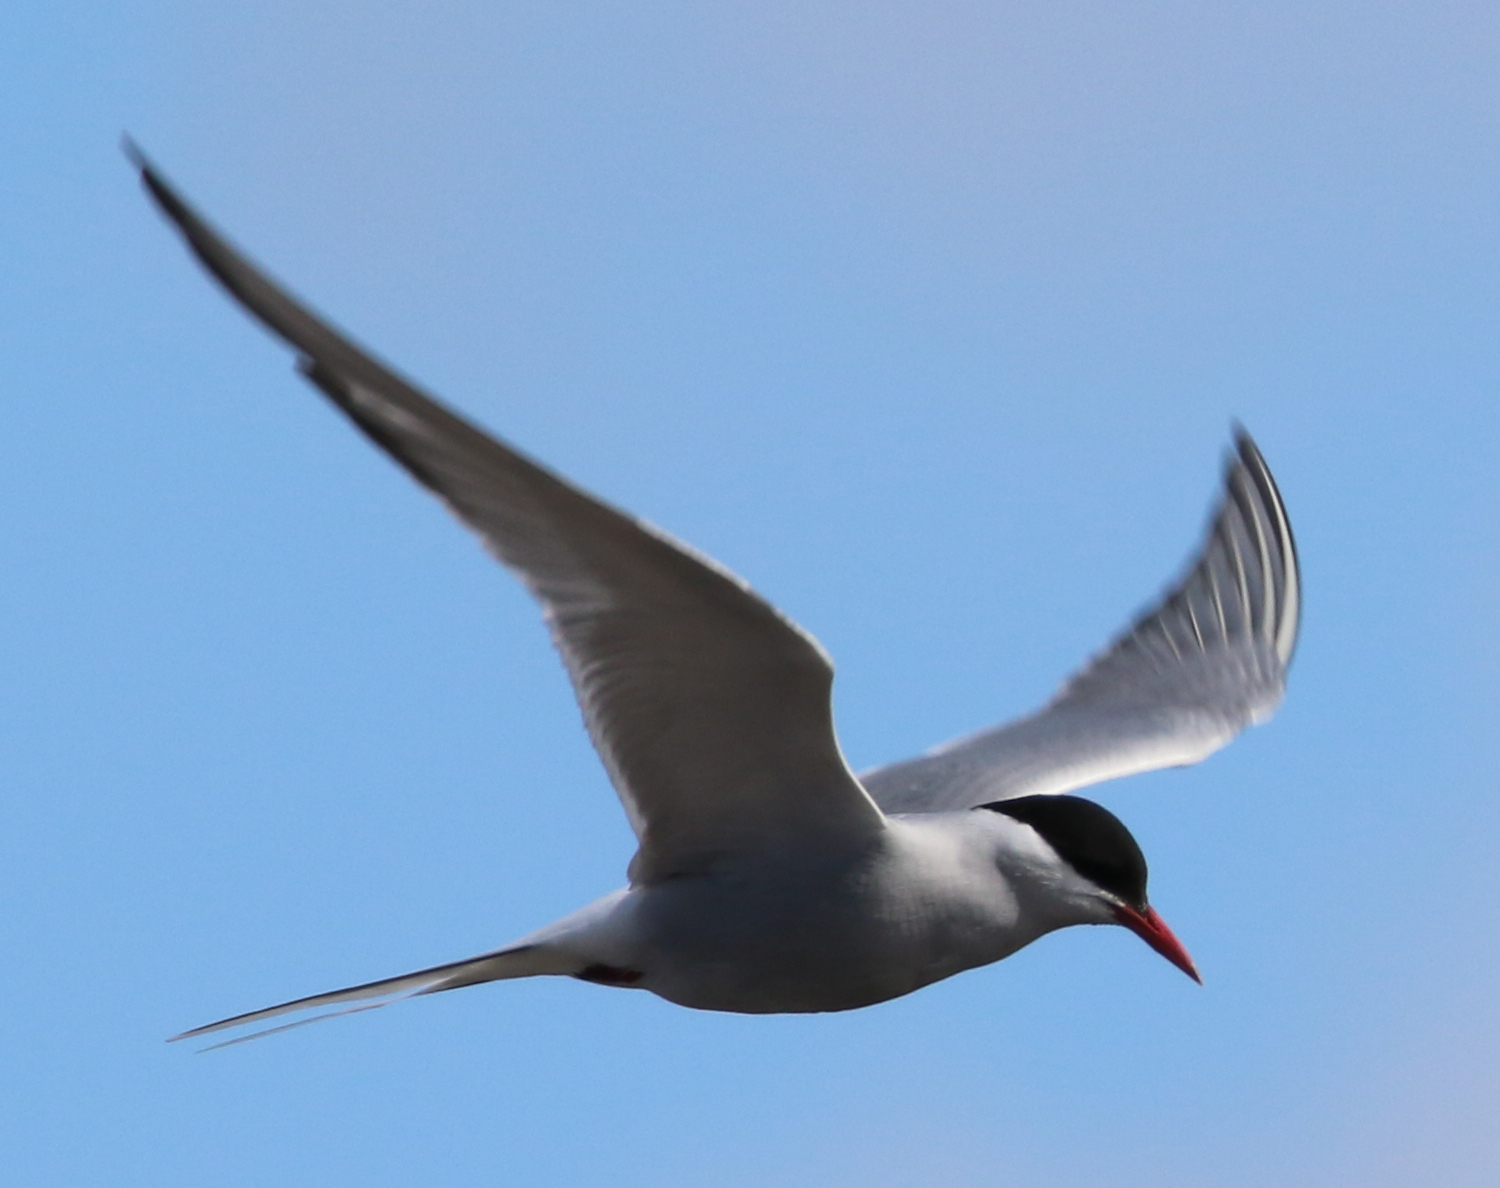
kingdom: Animalia
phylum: Chordata
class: Aves
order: Charadriiformes
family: Laridae
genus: Sterna
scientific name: Sterna paradisaea
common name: Arctic tern
